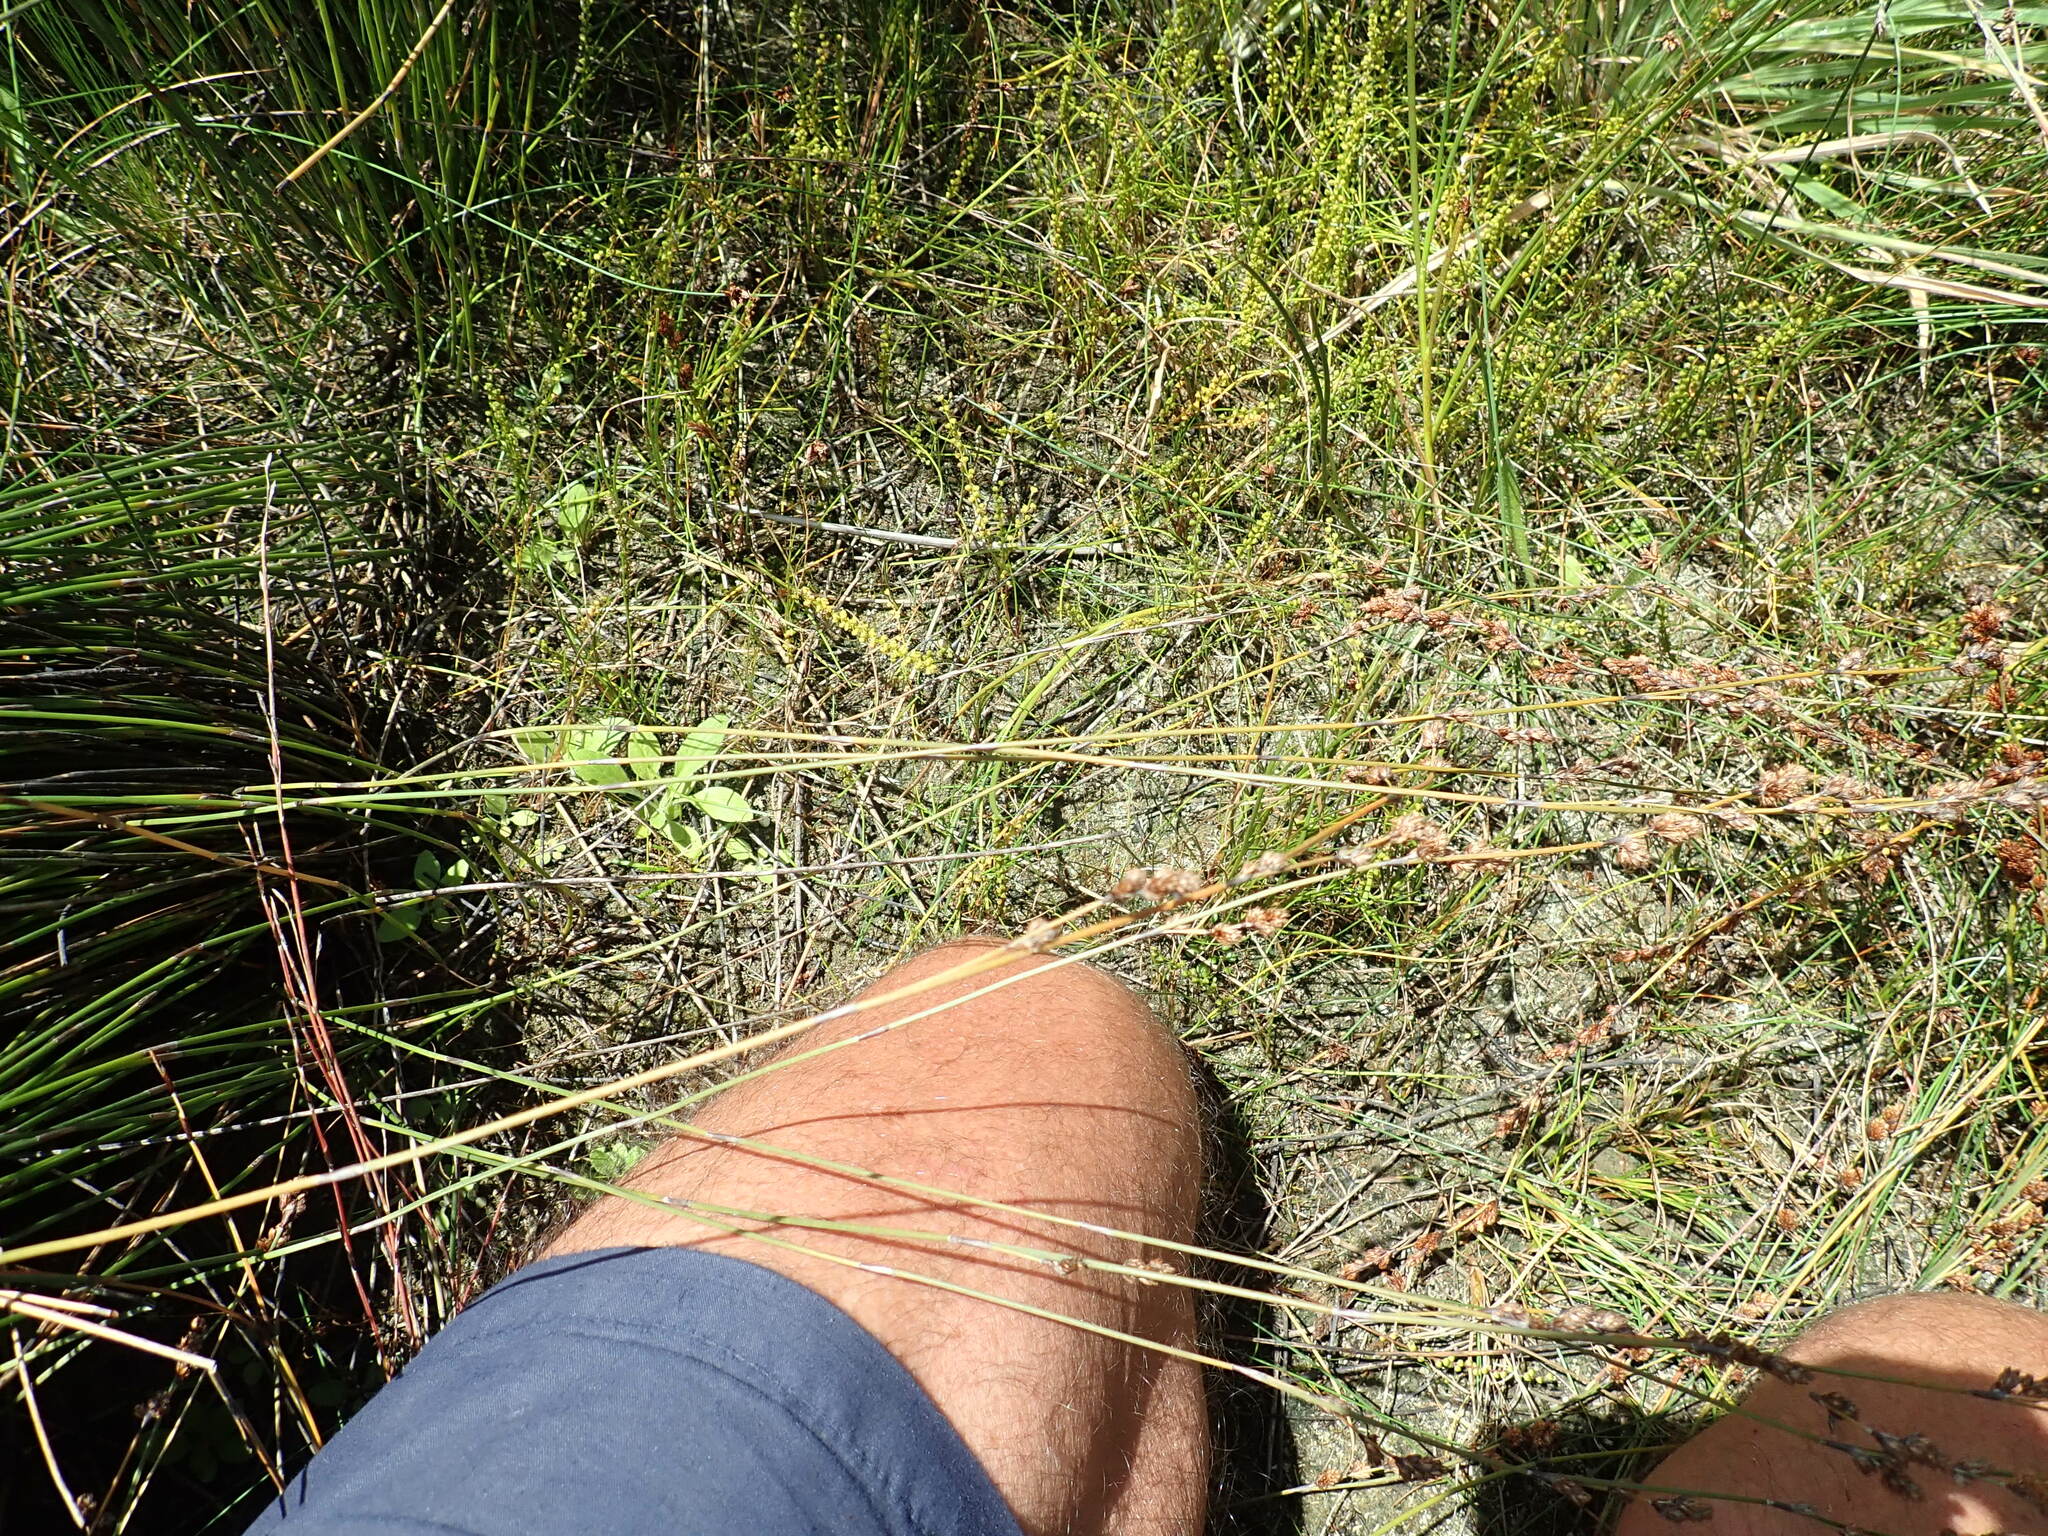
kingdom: Plantae
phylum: Tracheophyta
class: Liliopsida
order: Alismatales
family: Juncaginaceae
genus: Triglochin
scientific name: Triglochin striata
